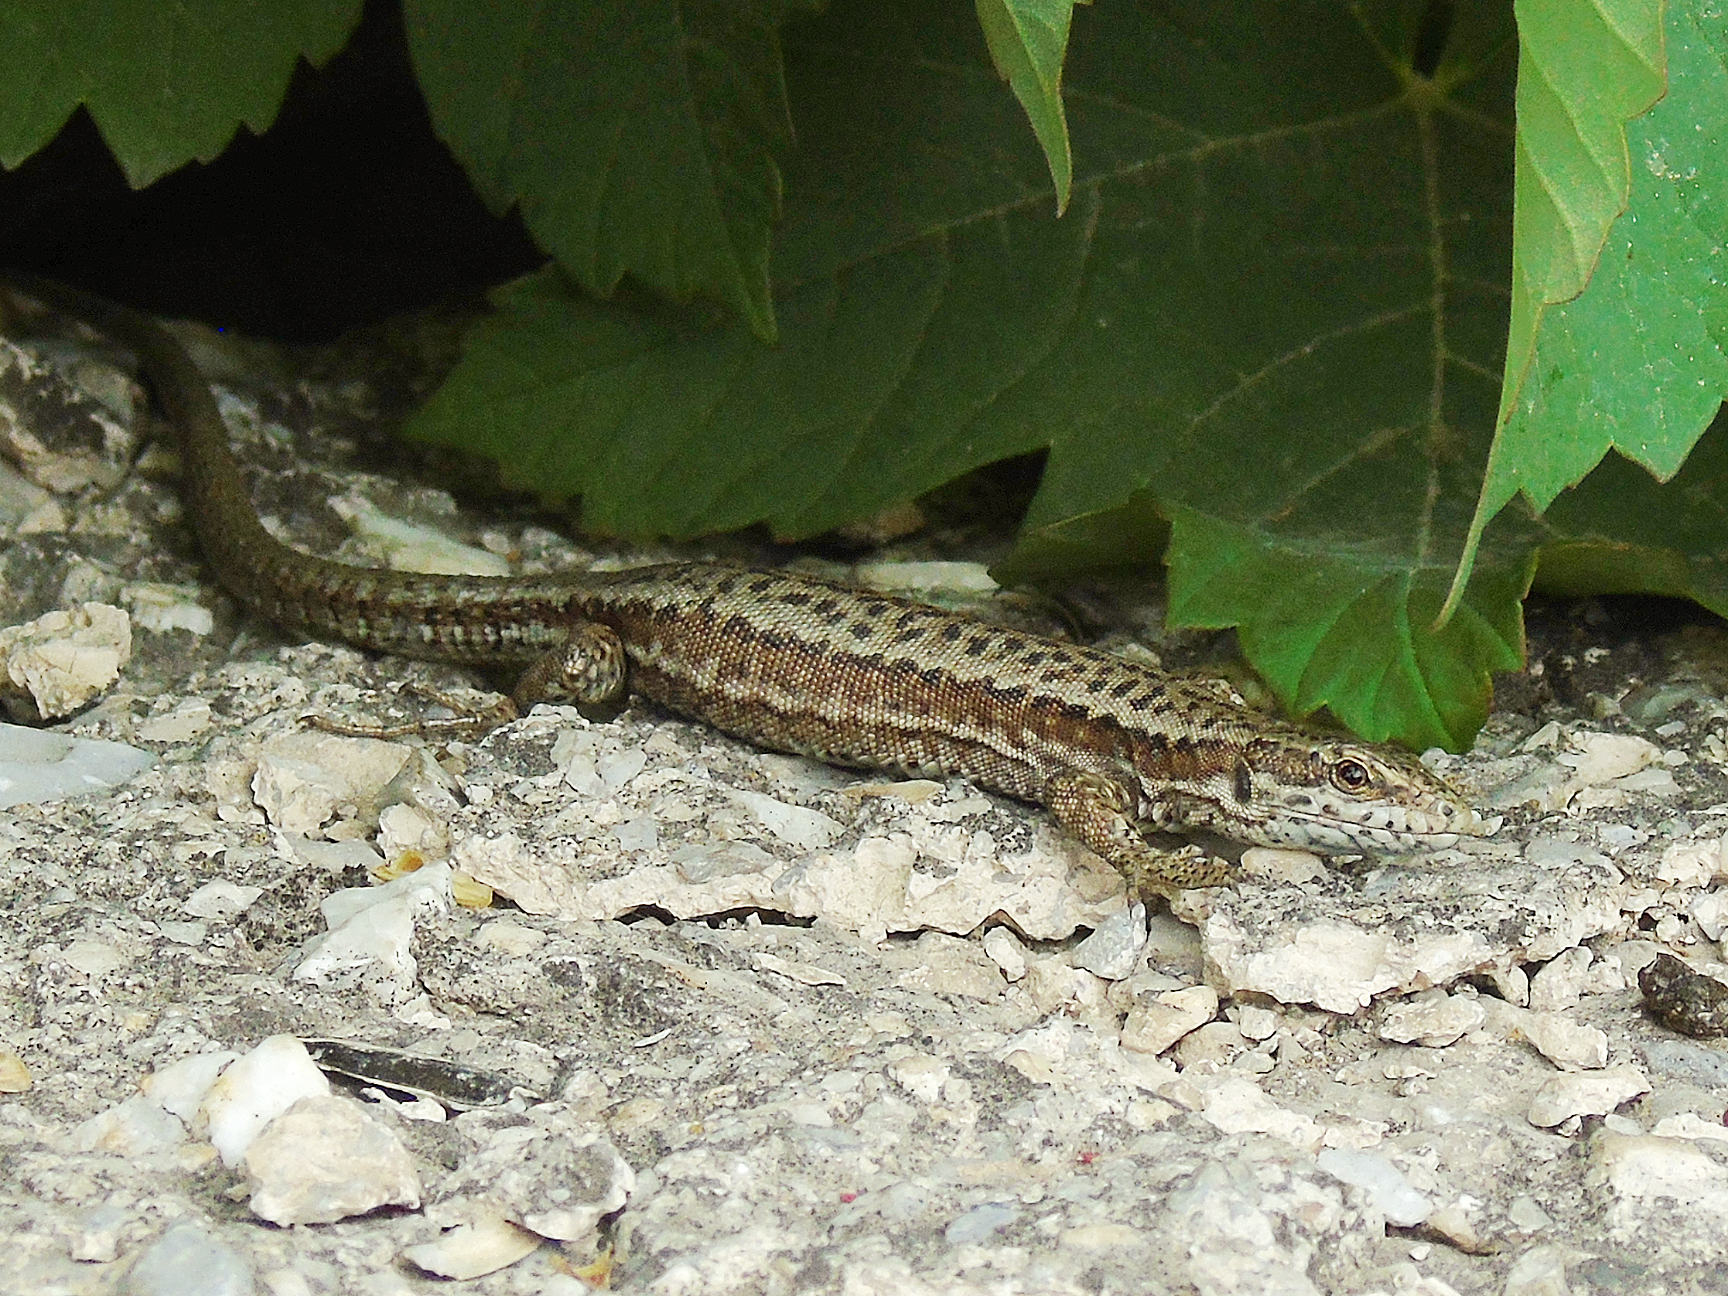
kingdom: Animalia
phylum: Chordata
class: Squamata
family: Lacertidae
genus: Podarcis
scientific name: Podarcis muralis
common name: Common wall lizard
